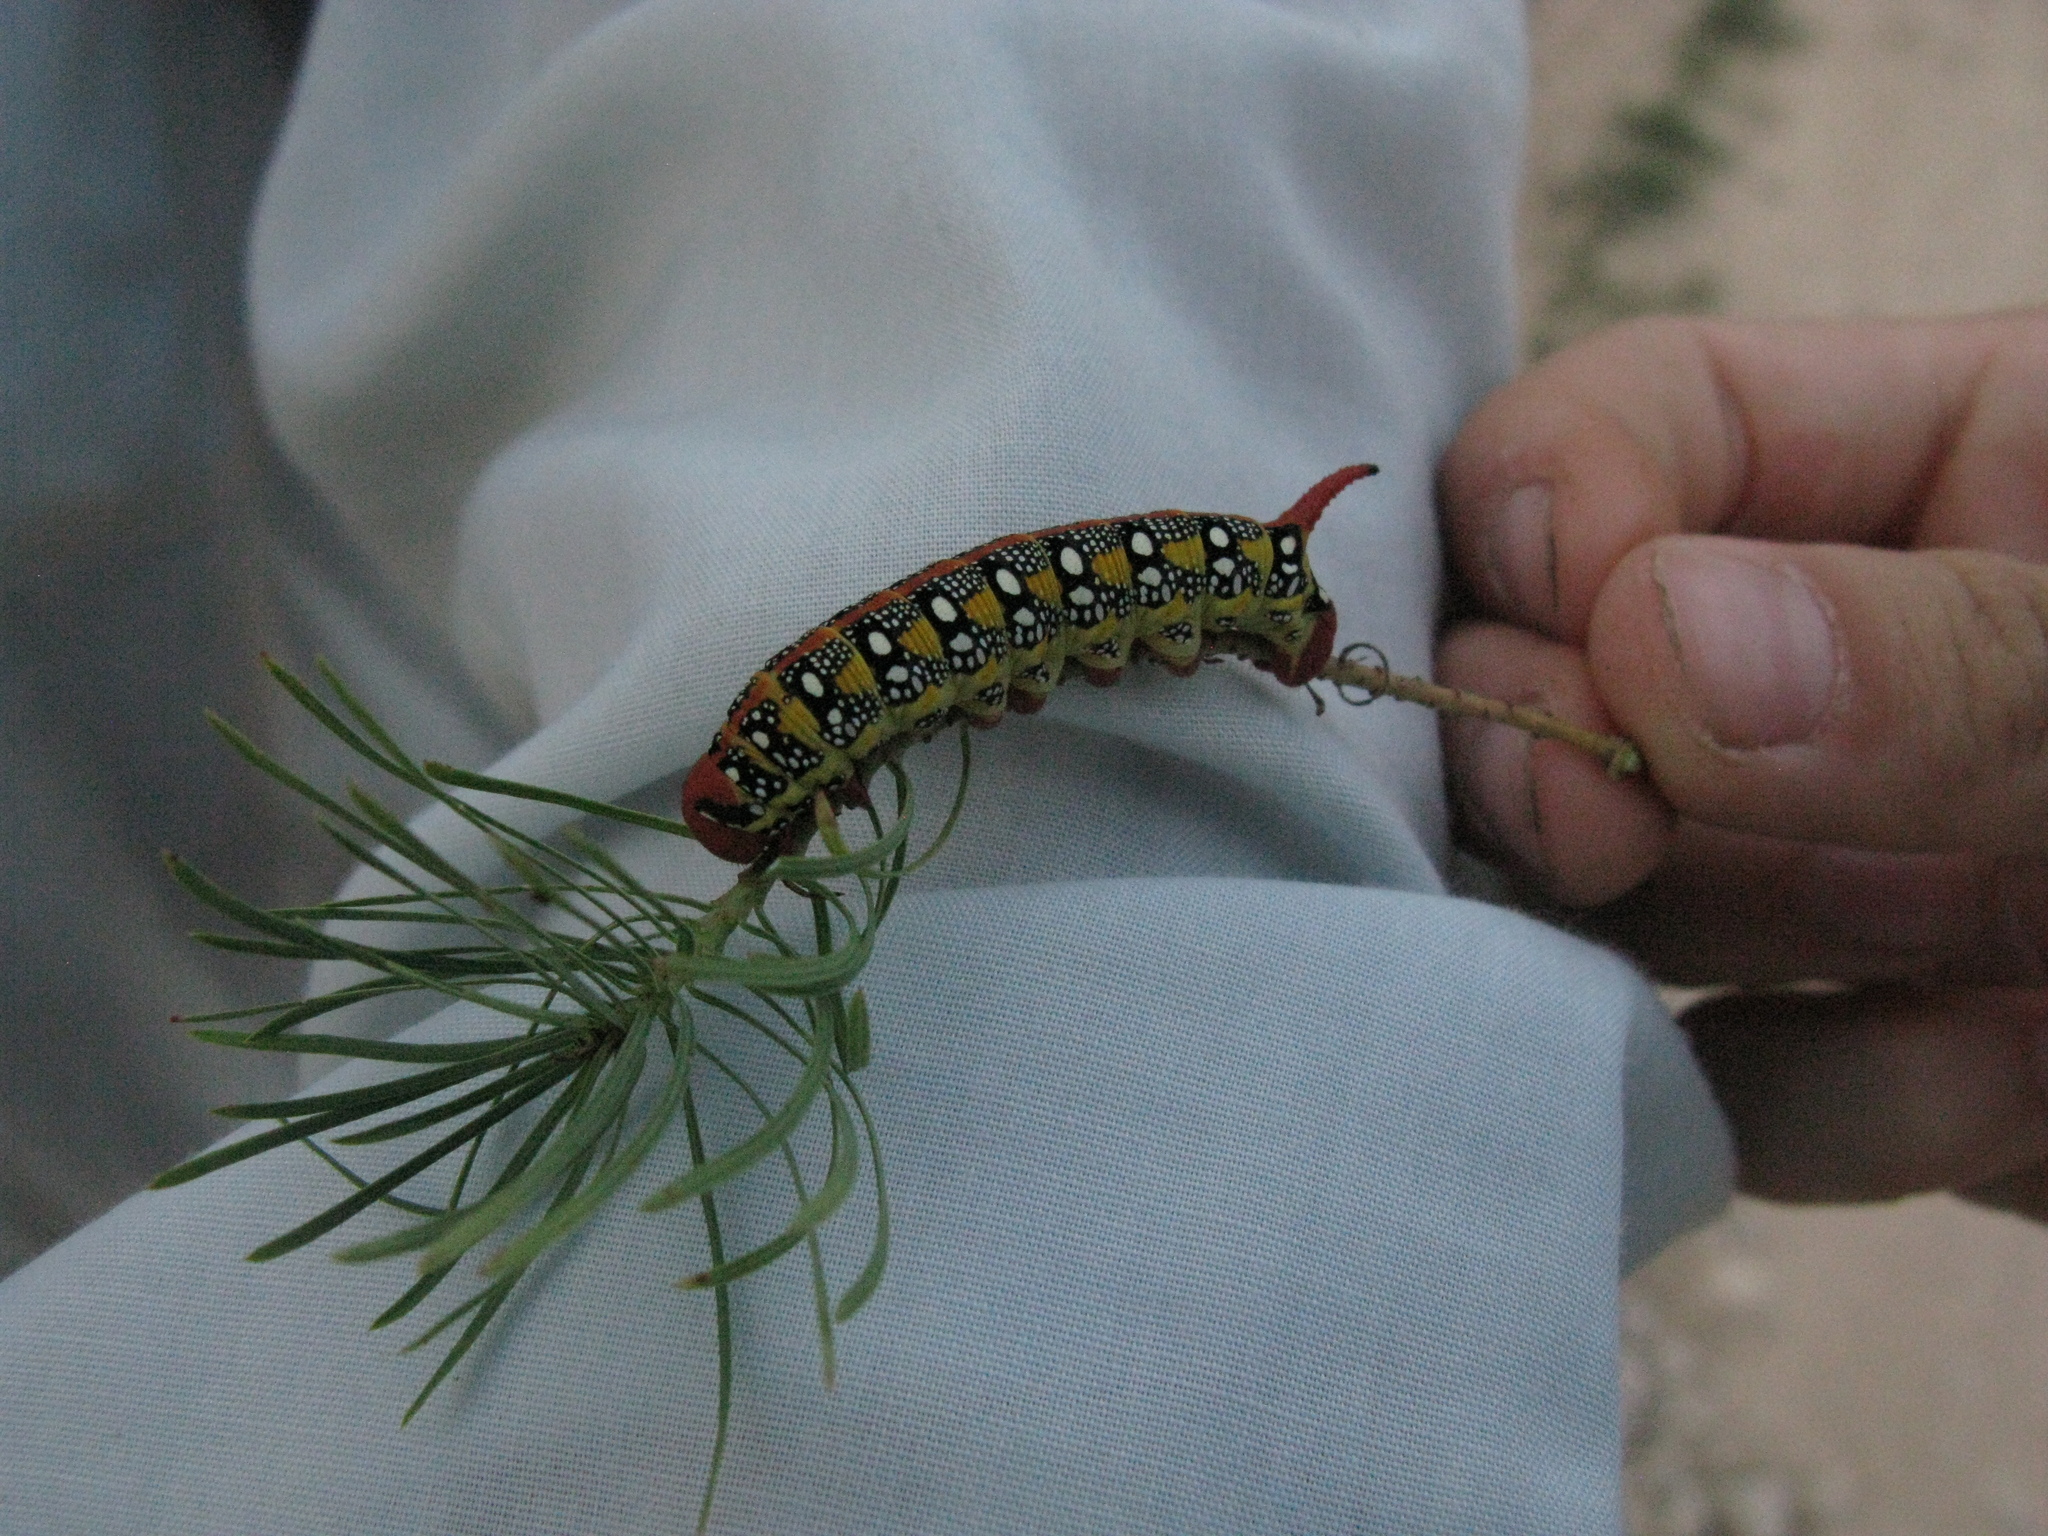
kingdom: Animalia
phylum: Arthropoda
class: Insecta
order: Lepidoptera
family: Sphingidae
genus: Hyles
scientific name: Hyles euphorbiae
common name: Spurge hawk-moth
